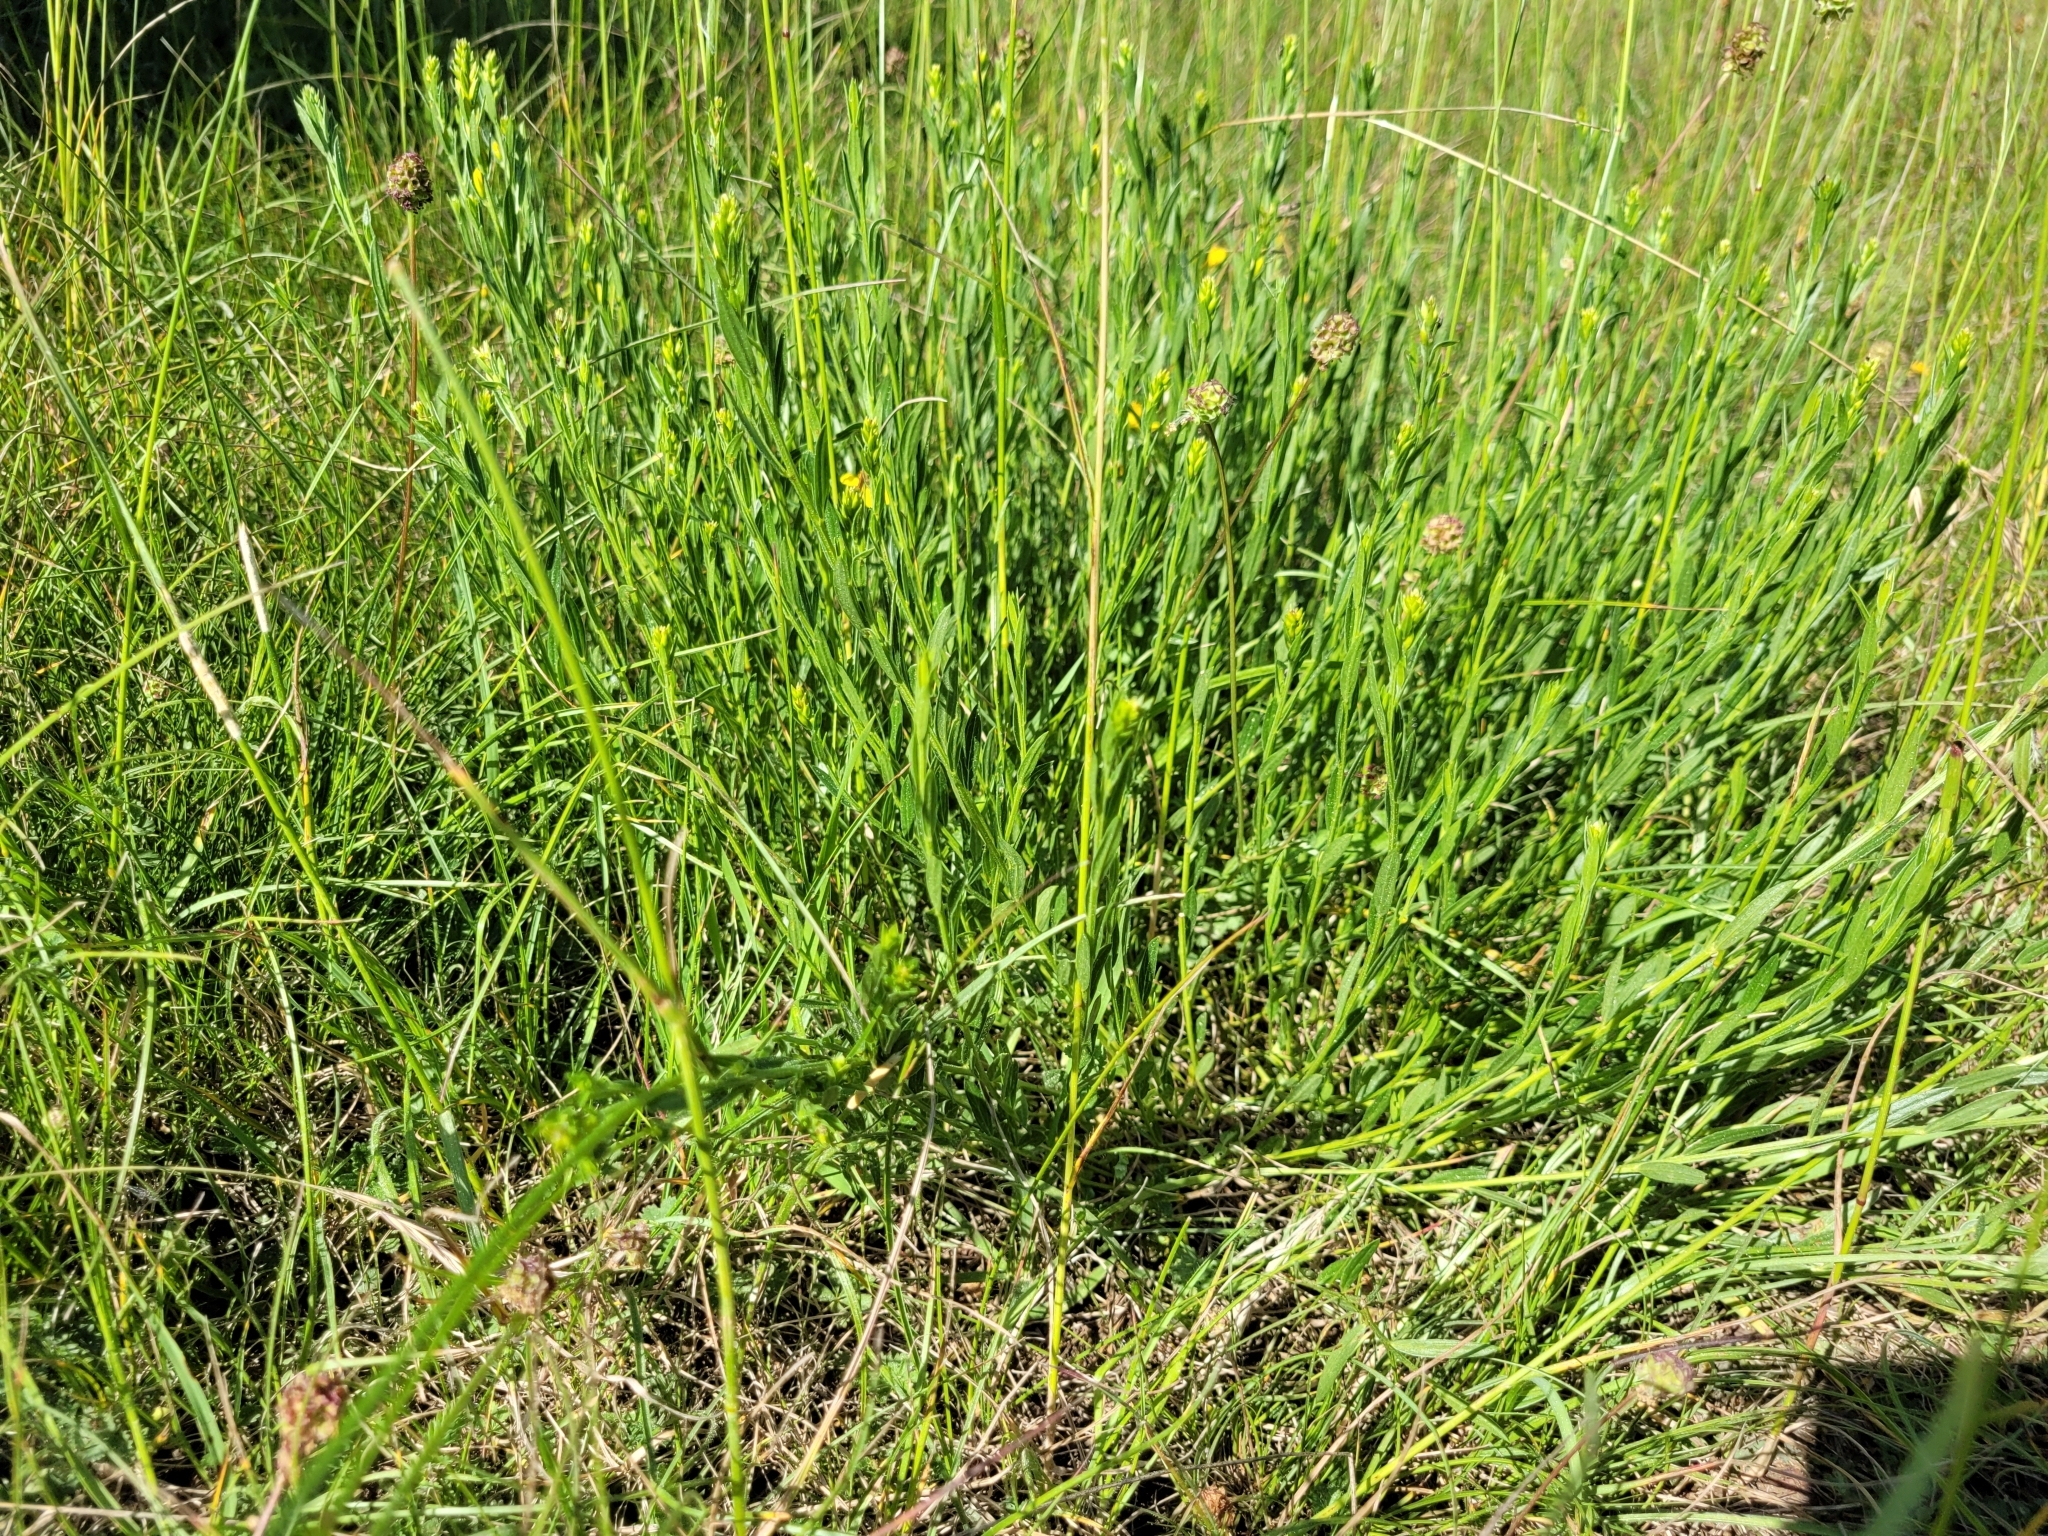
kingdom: Plantae
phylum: Tracheophyta
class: Magnoliopsida
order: Fabales
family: Fabaceae
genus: Genista
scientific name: Genista sagittalis
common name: Winged greenweed
